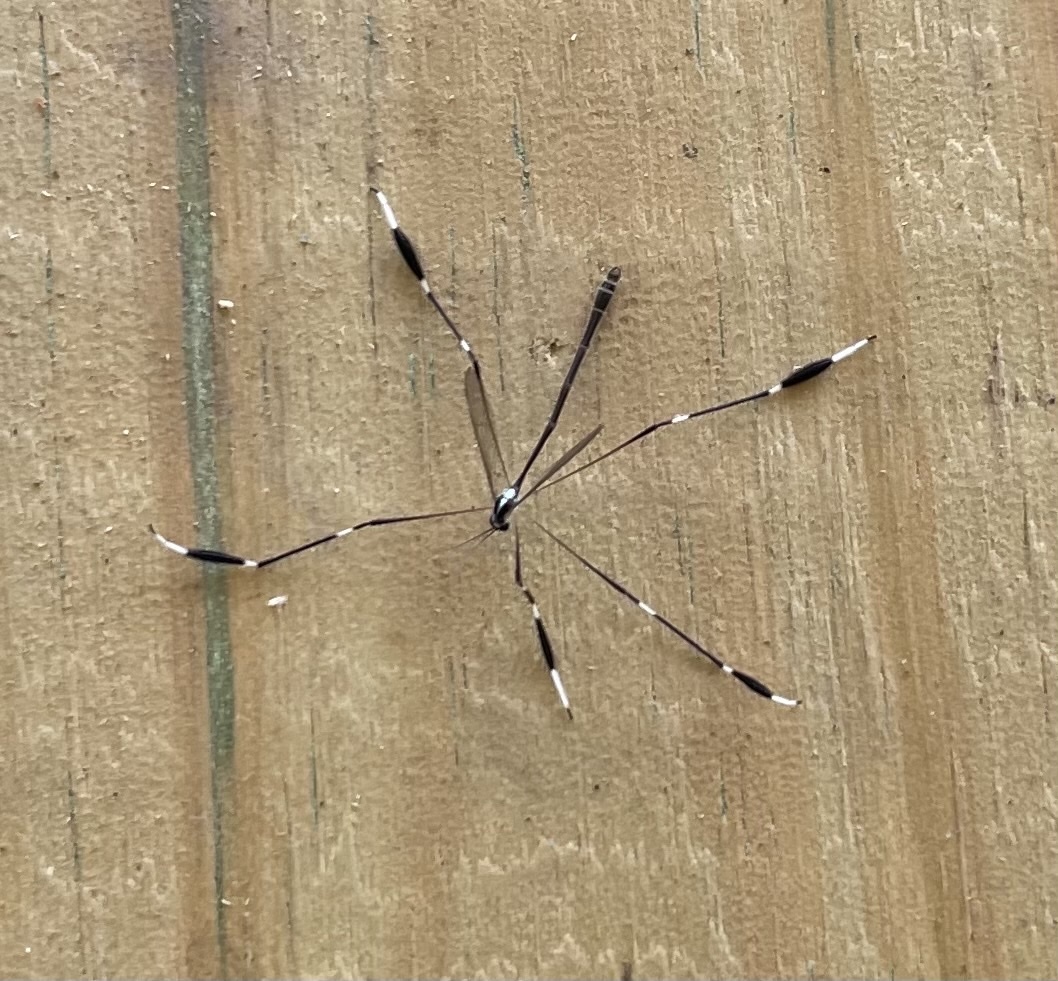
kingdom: Animalia
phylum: Arthropoda
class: Insecta
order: Diptera
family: Ptychopteridae
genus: Bittacomorpha
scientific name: Bittacomorpha clavipes
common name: Eastern phantom crane fly
